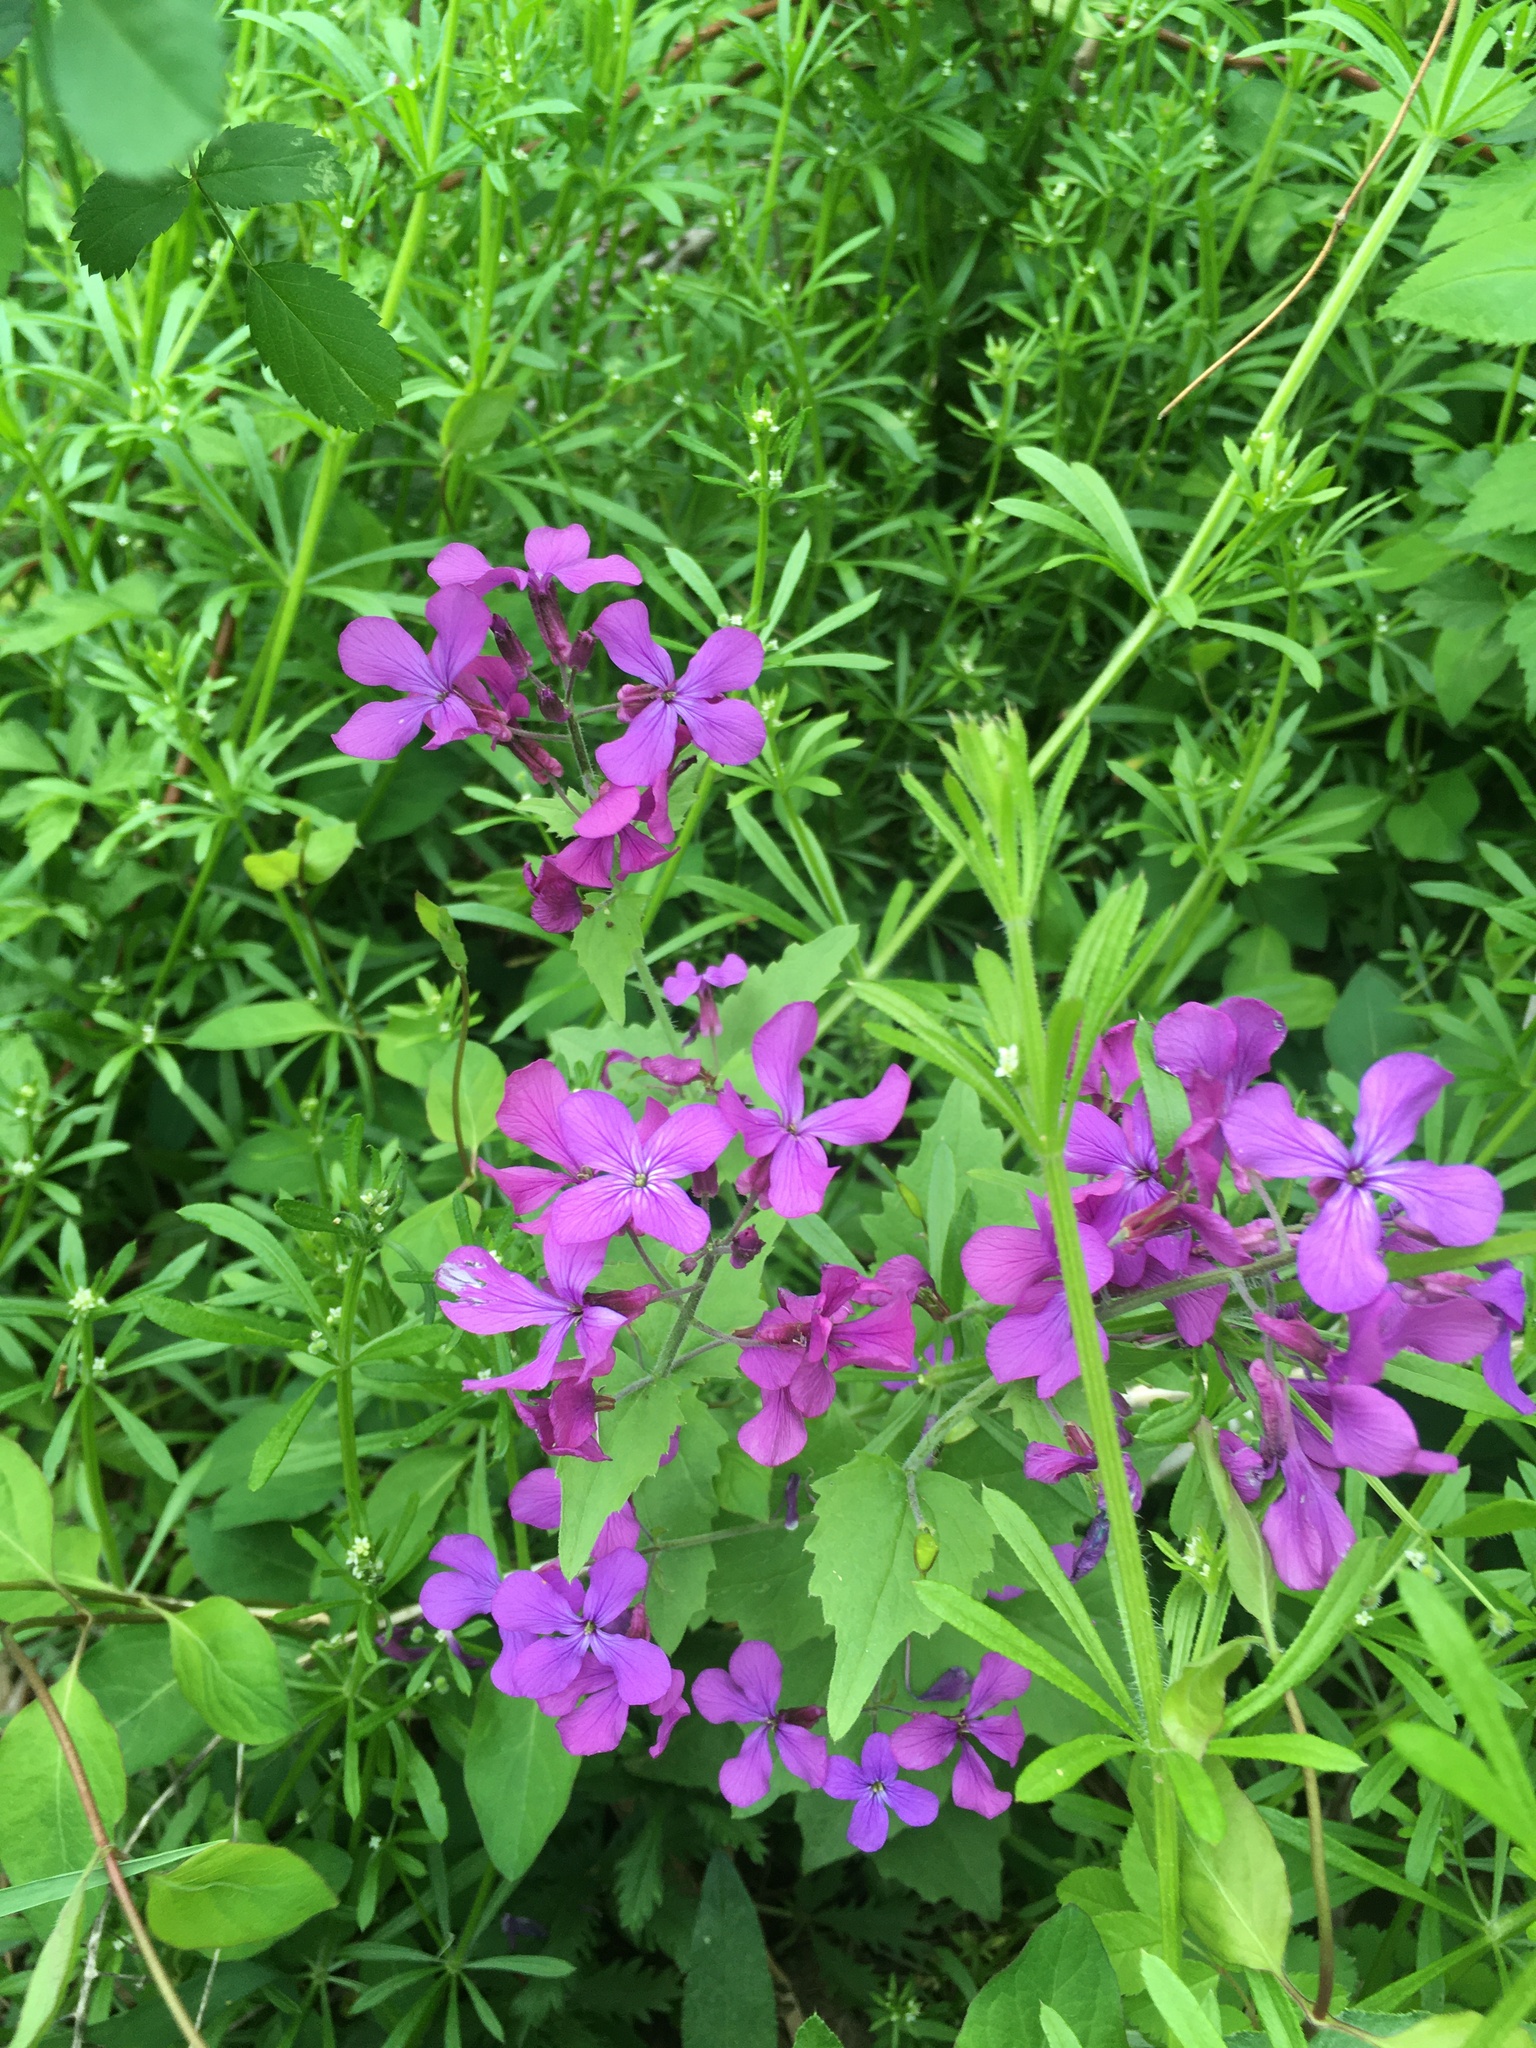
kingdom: Plantae
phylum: Tracheophyta
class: Magnoliopsida
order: Brassicales
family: Brassicaceae
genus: Lunaria
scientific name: Lunaria annua
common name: Honesty
